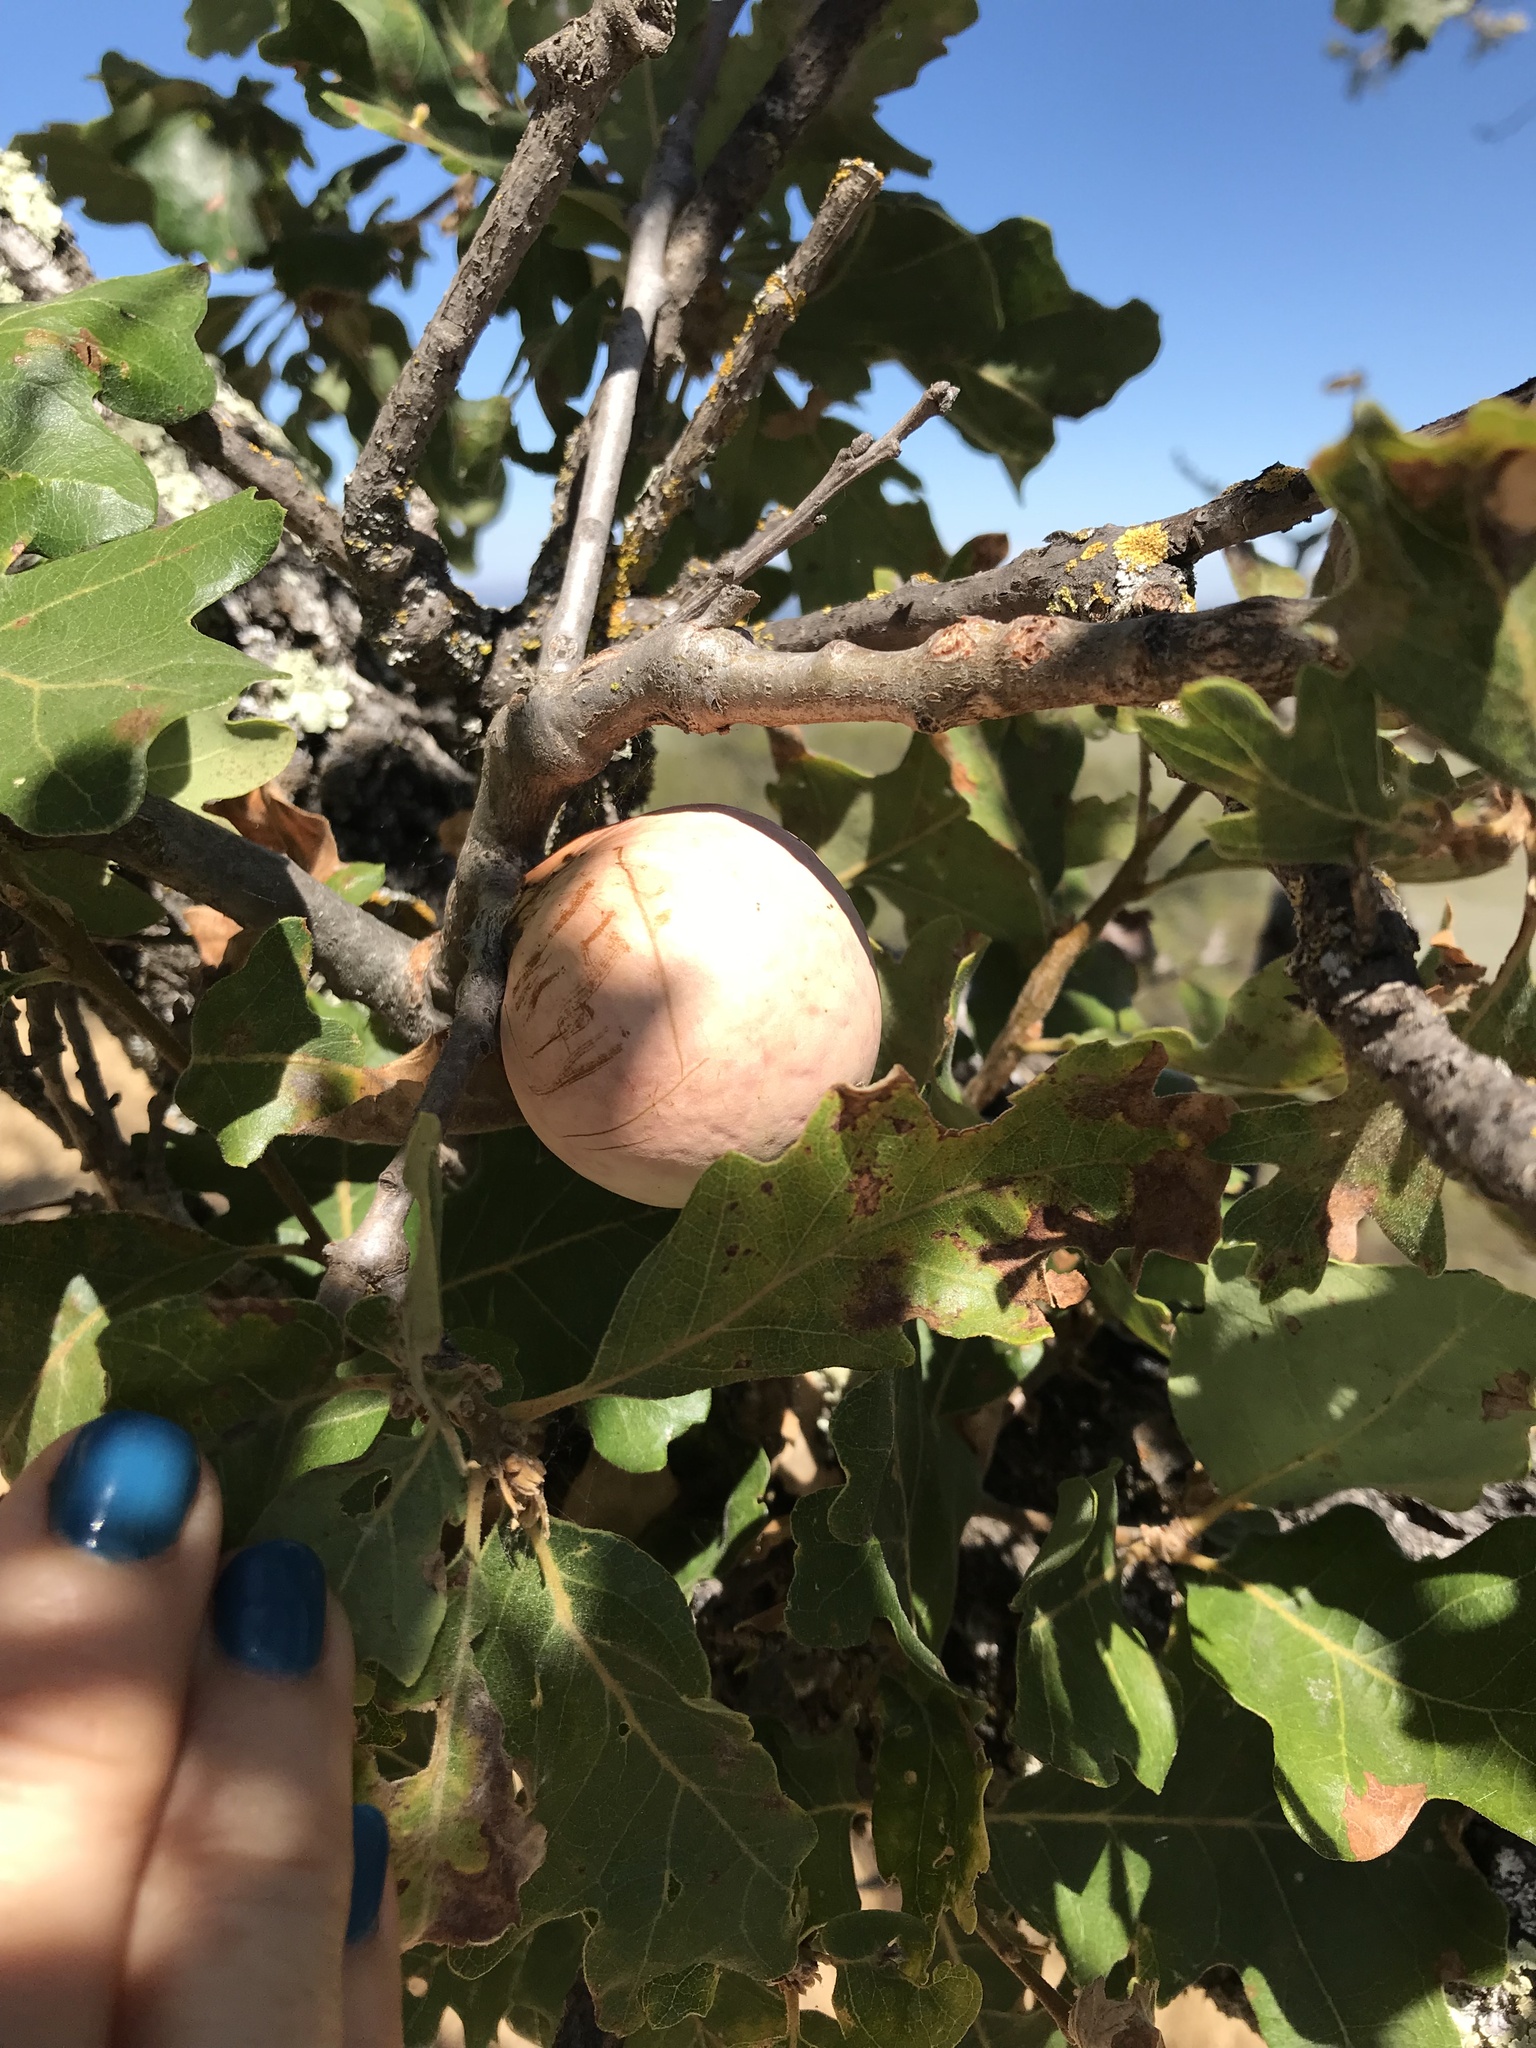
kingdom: Animalia
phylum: Arthropoda
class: Insecta
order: Hymenoptera
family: Cynipidae
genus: Andricus
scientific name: Andricus quercuscalifornicus
